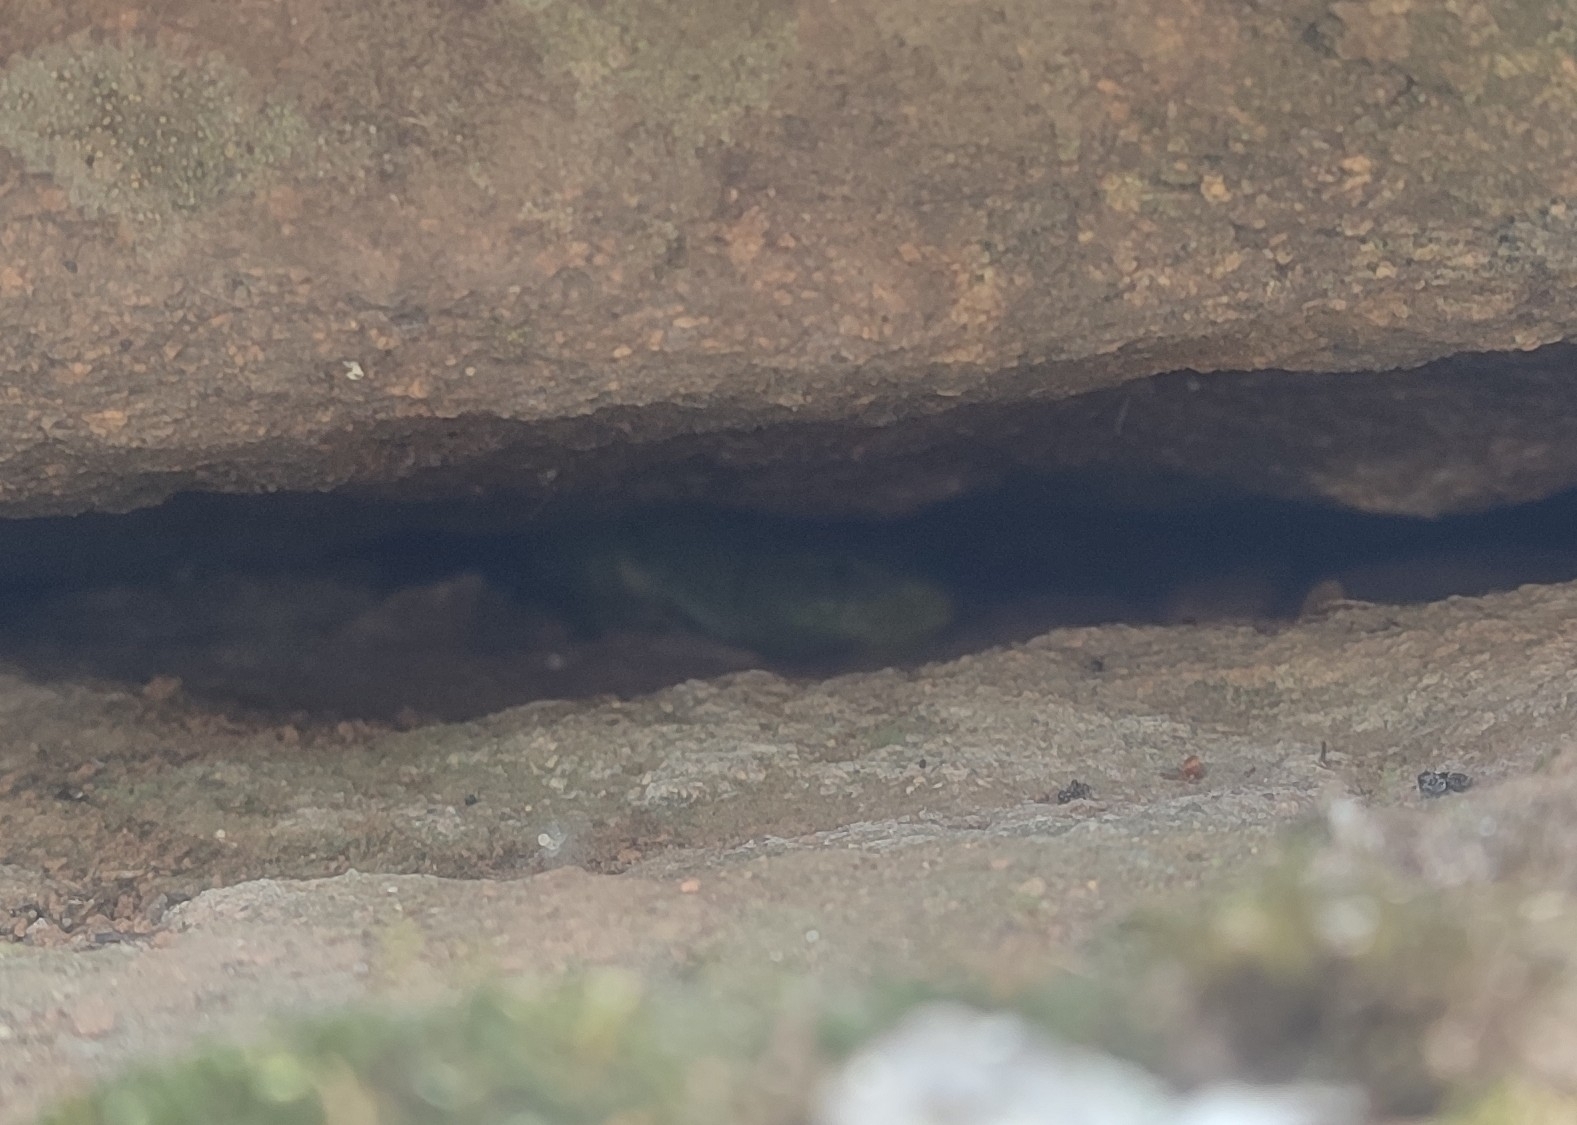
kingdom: Animalia
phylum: Chordata
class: Squamata
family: Lacertidae
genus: Timon
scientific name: Timon lepidus
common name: Ocellated lizard
